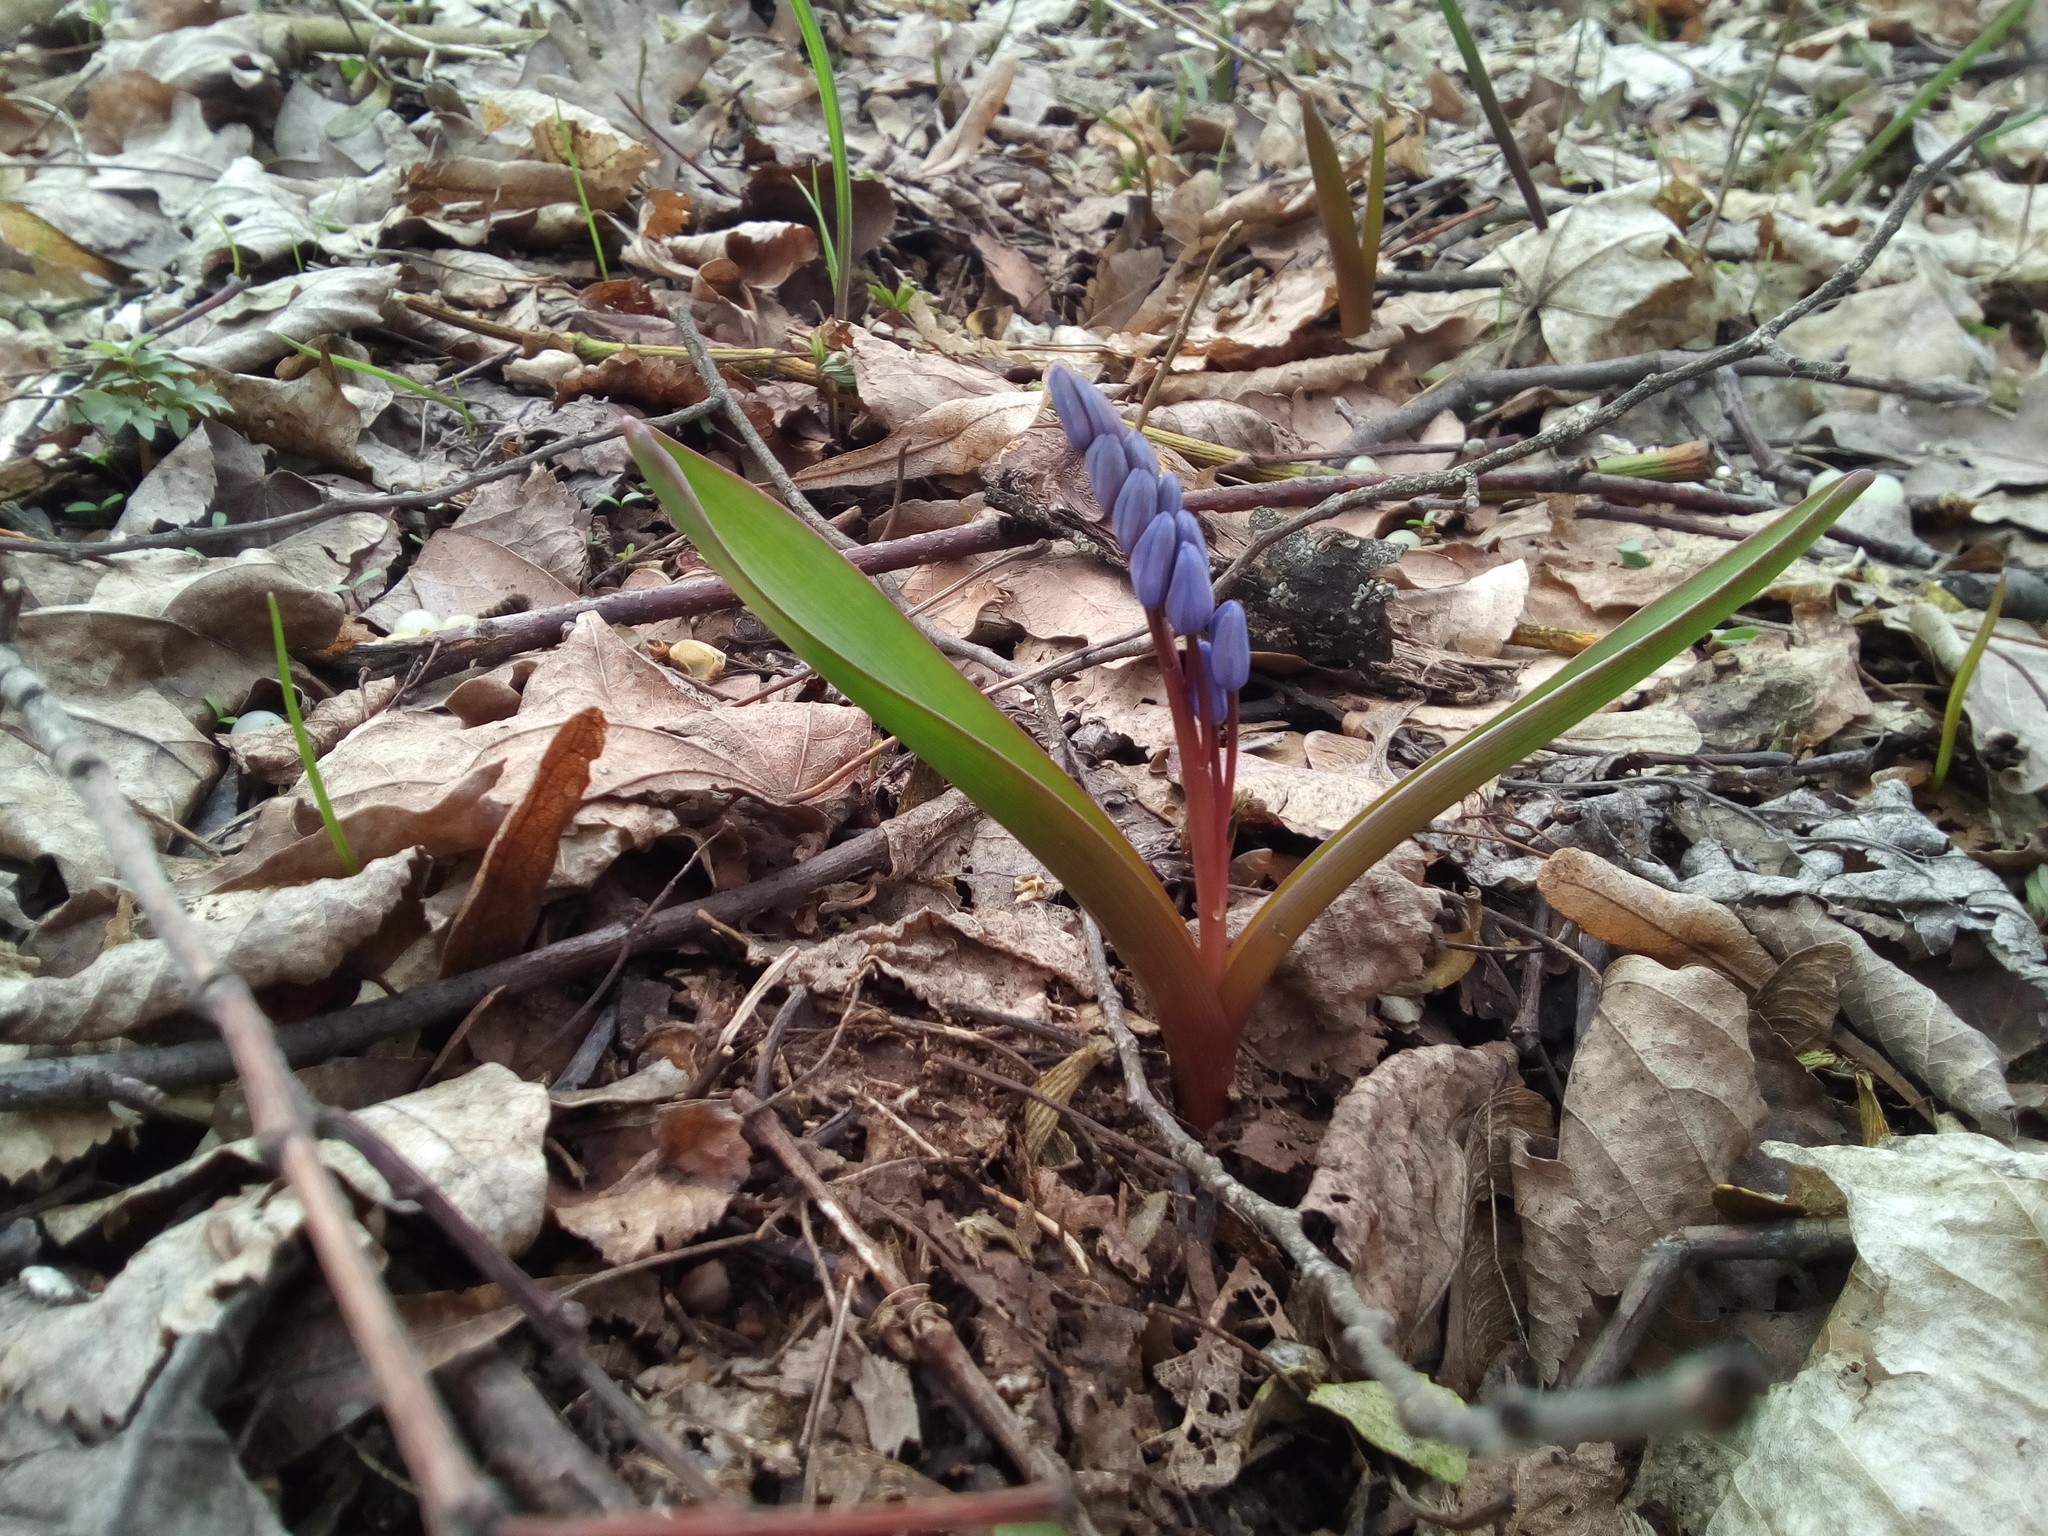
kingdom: Plantae
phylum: Tracheophyta
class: Liliopsida
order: Asparagales
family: Asparagaceae
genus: Scilla
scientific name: Scilla bifolia
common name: Alpine squill
